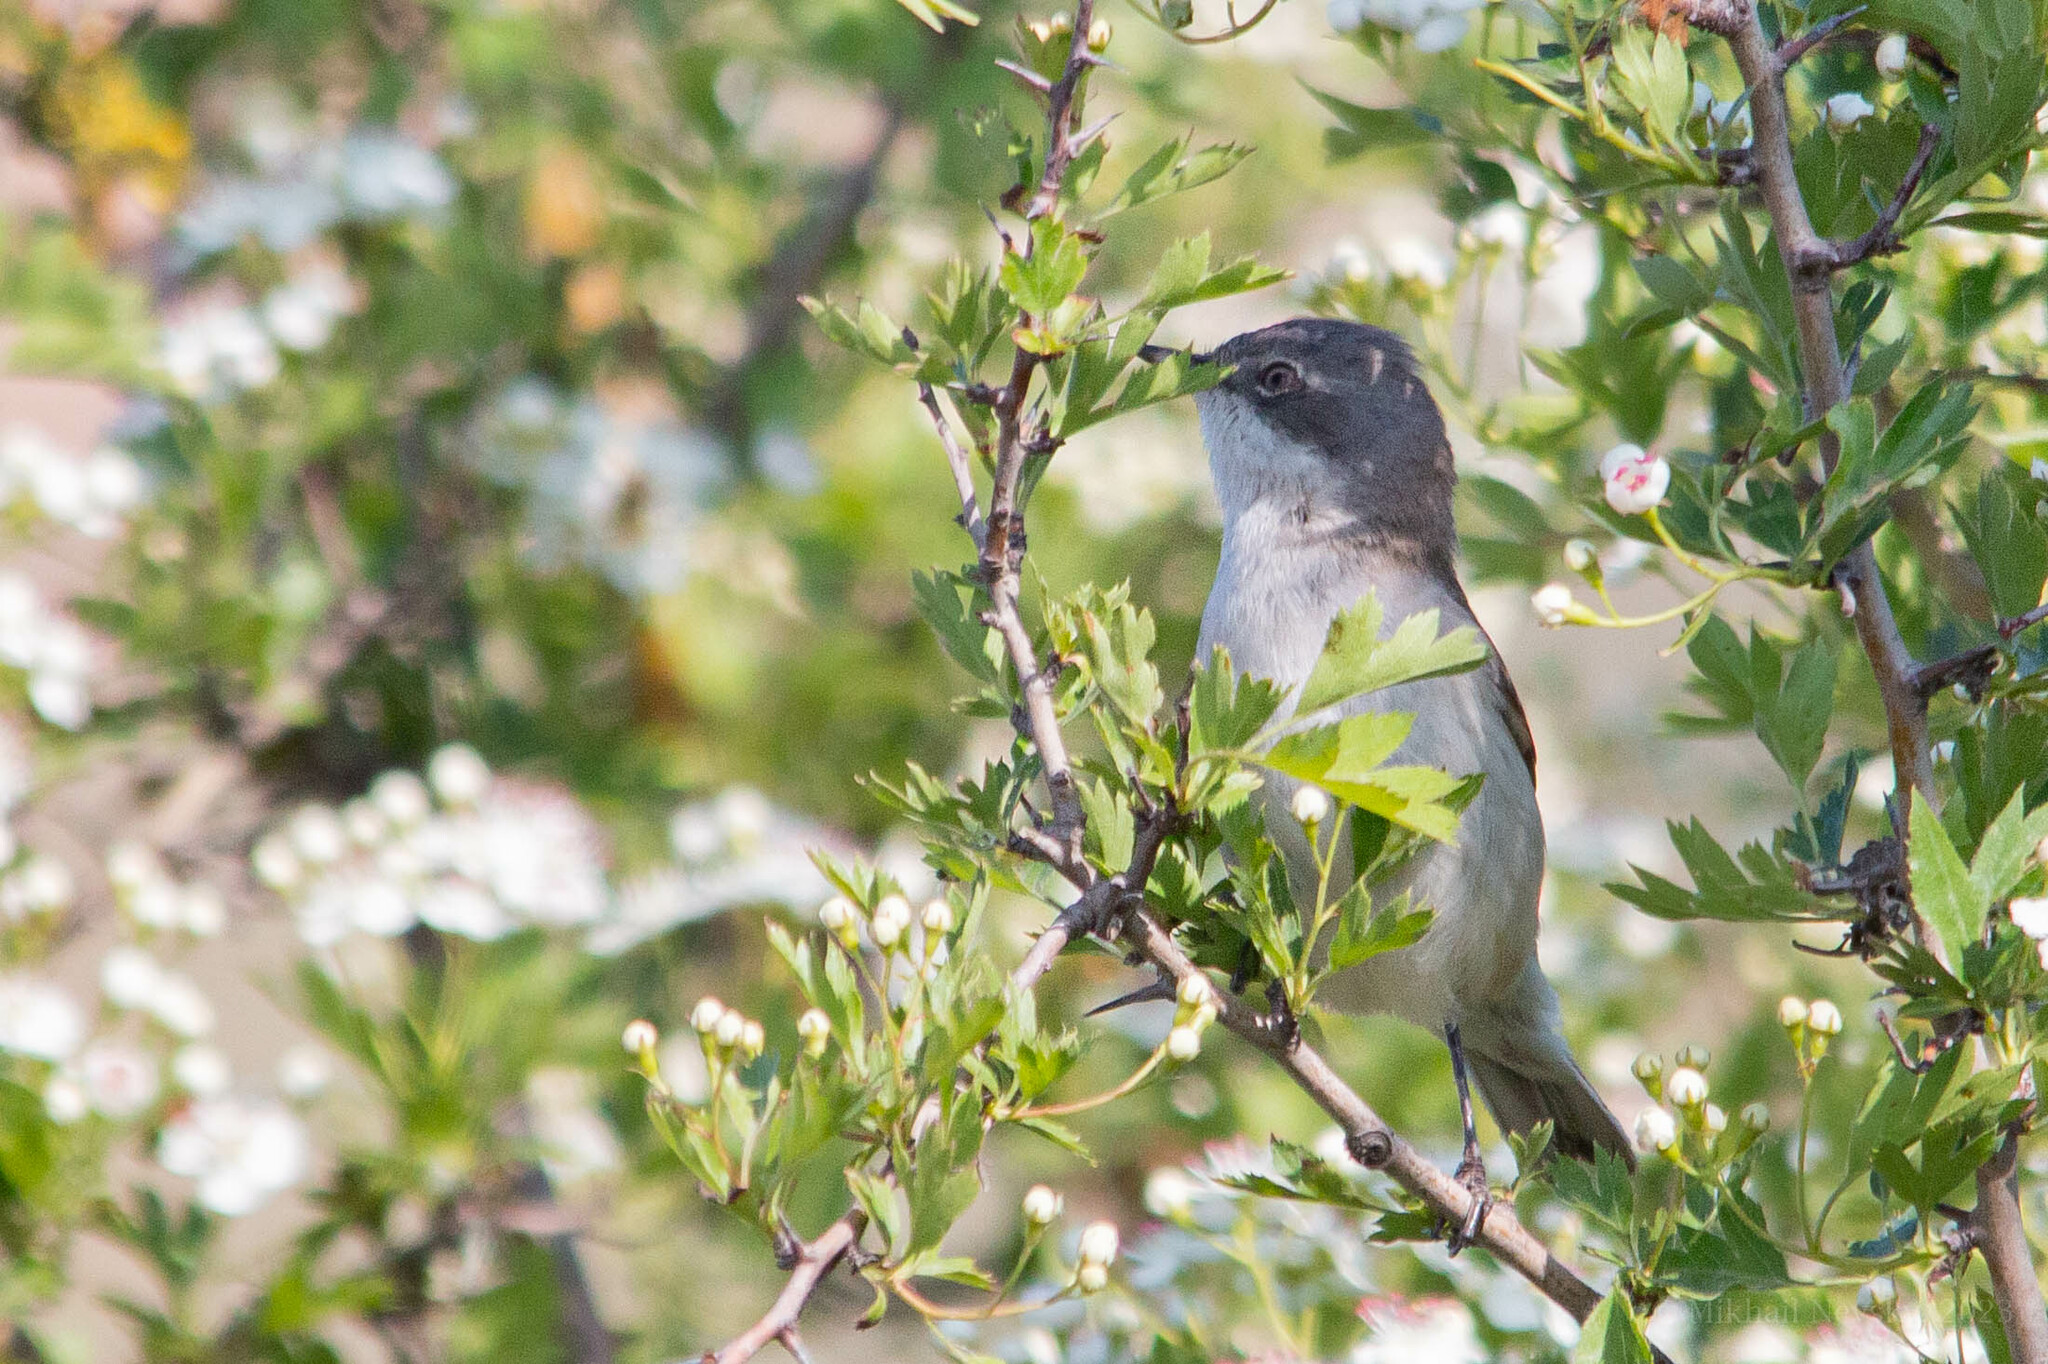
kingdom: Animalia
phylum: Chordata
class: Aves
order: Passeriformes
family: Sylviidae
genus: Sylvia
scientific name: Sylvia curruca
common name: Lesser whitethroat
